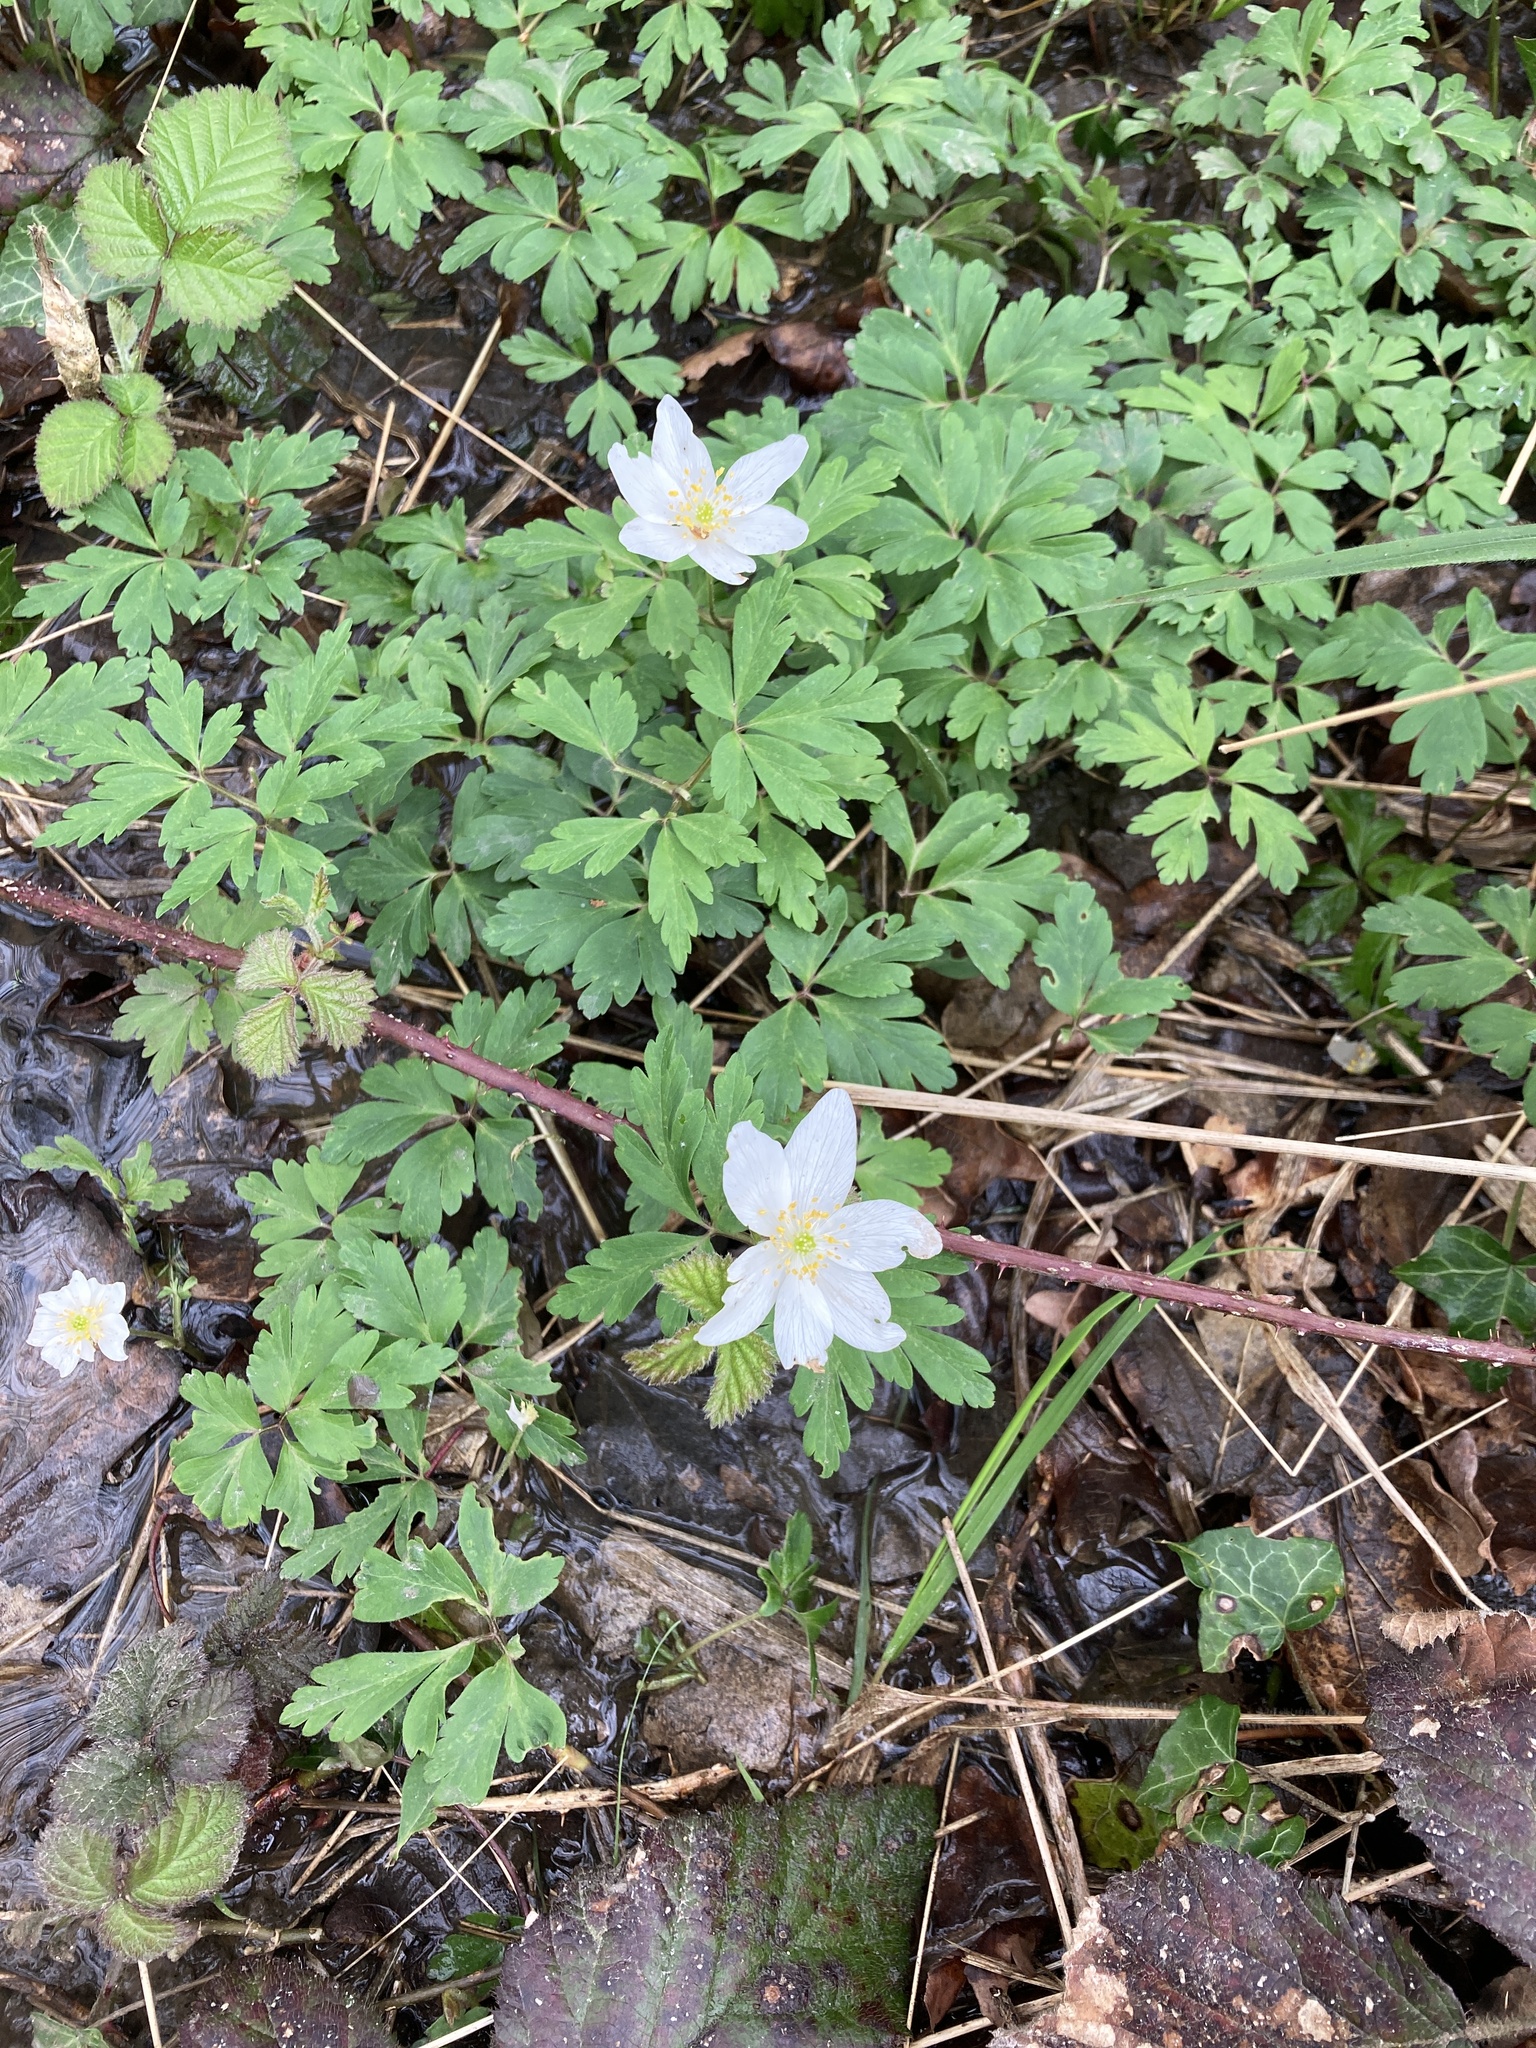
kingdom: Plantae
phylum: Tracheophyta
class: Magnoliopsida
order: Ranunculales
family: Ranunculaceae
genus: Anemone
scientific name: Anemone nemorosa
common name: Wood anemone
